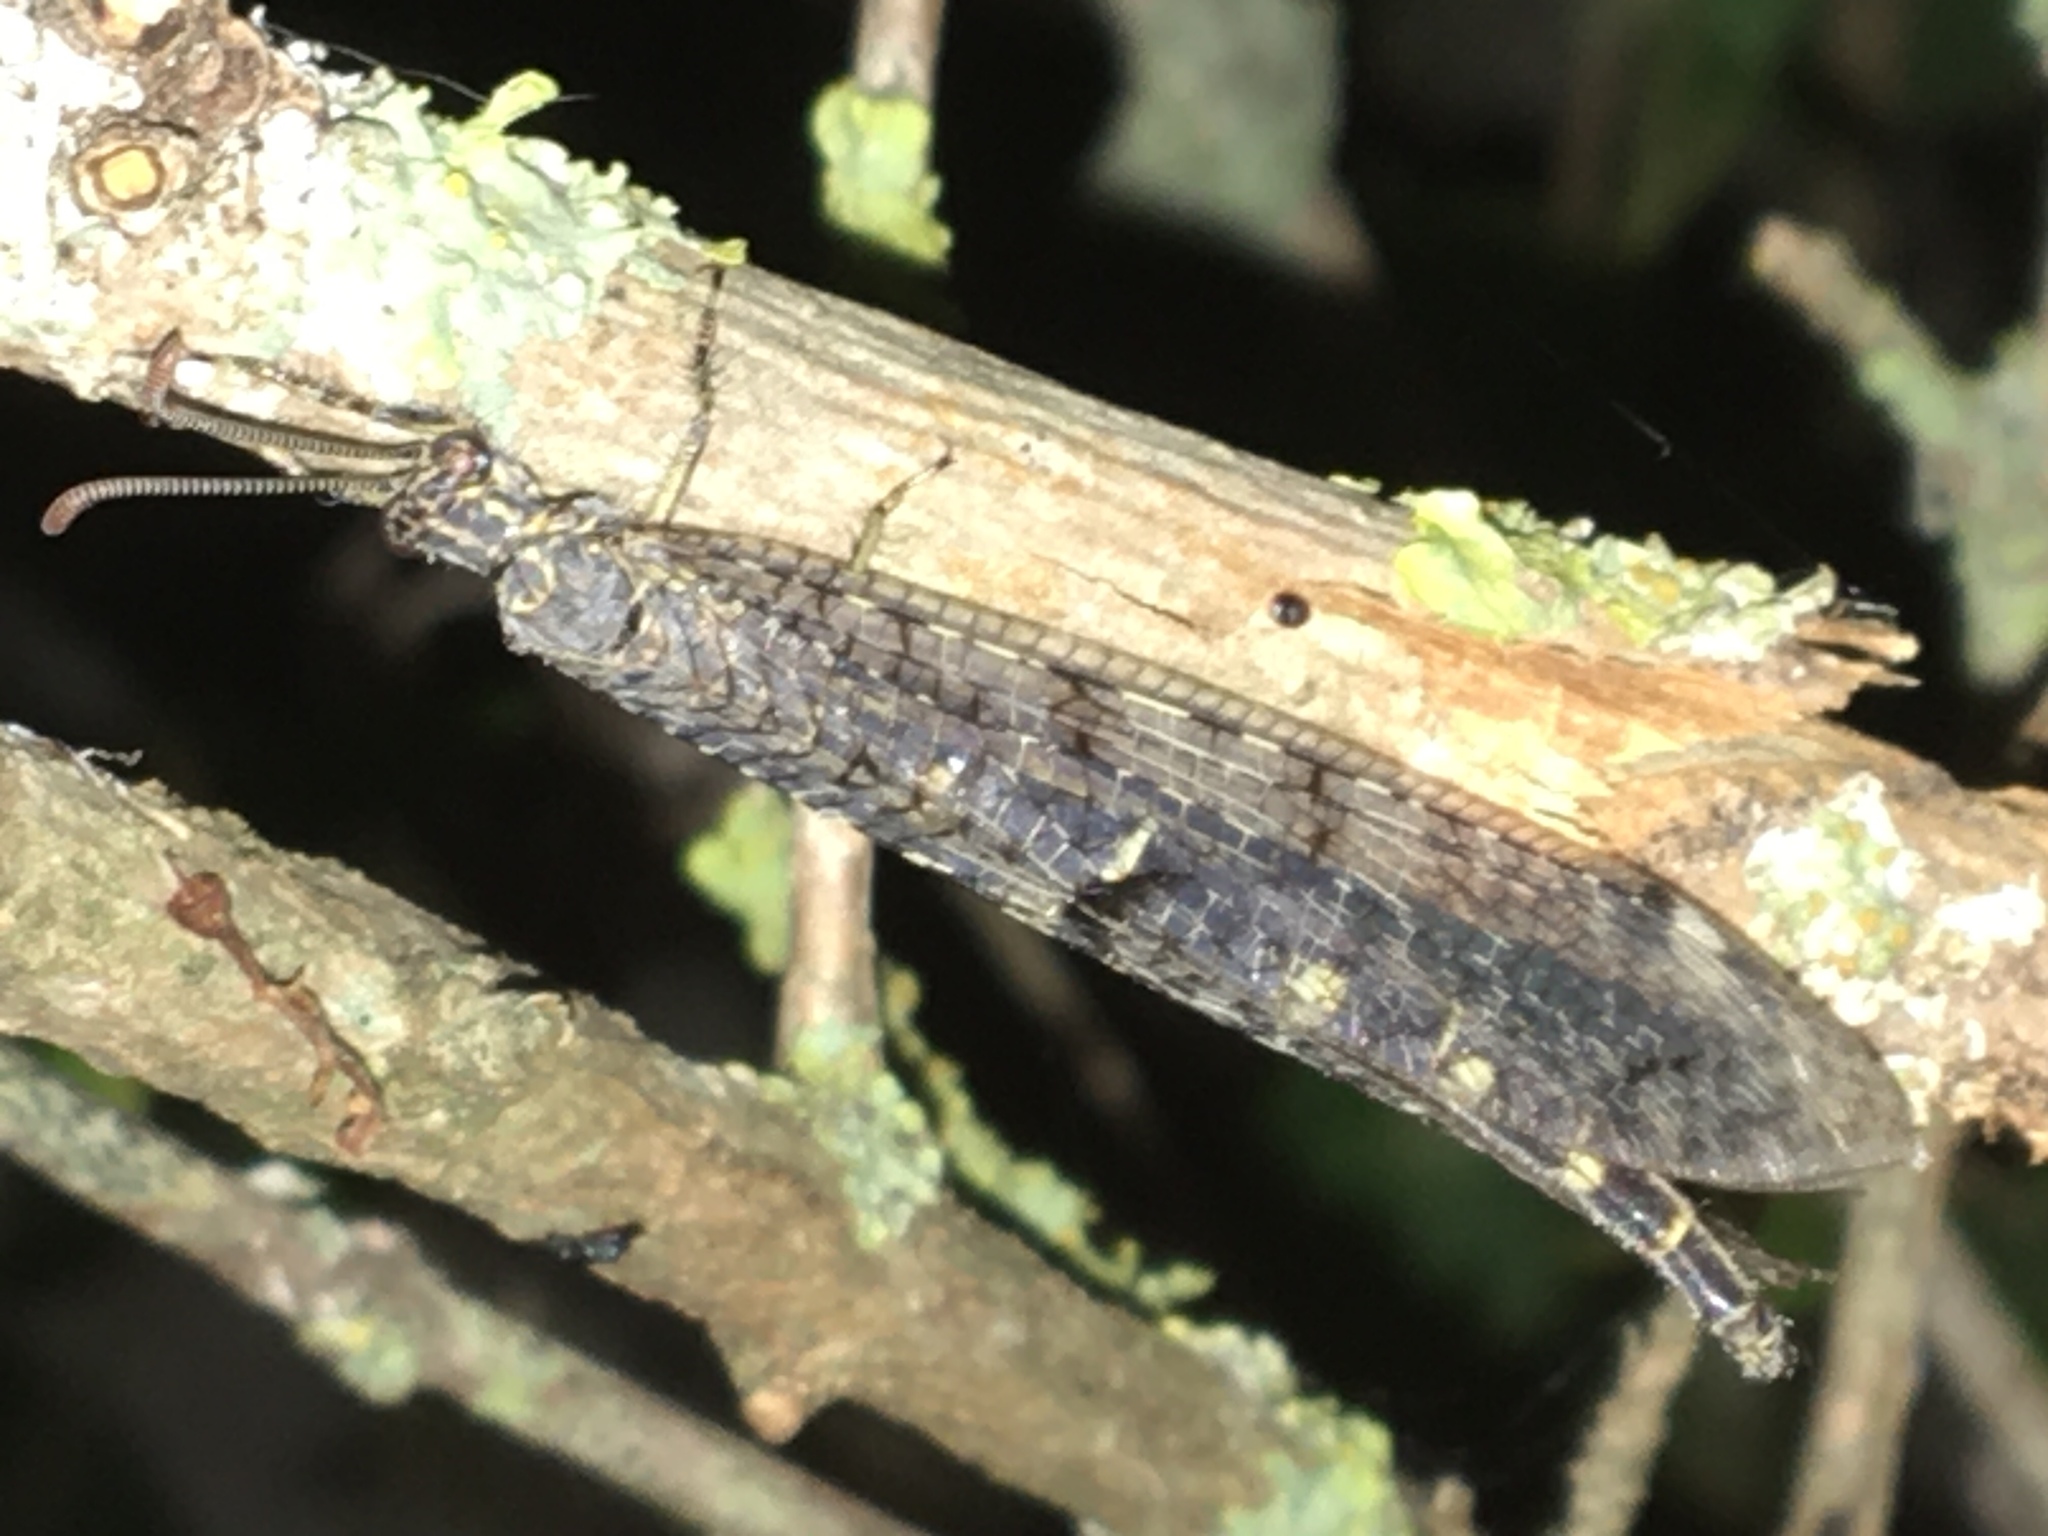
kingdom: Animalia
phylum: Arthropoda
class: Insecta
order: Neuroptera
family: Myrmeleontidae
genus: Distoleon
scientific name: Distoleon tetragrammicus
